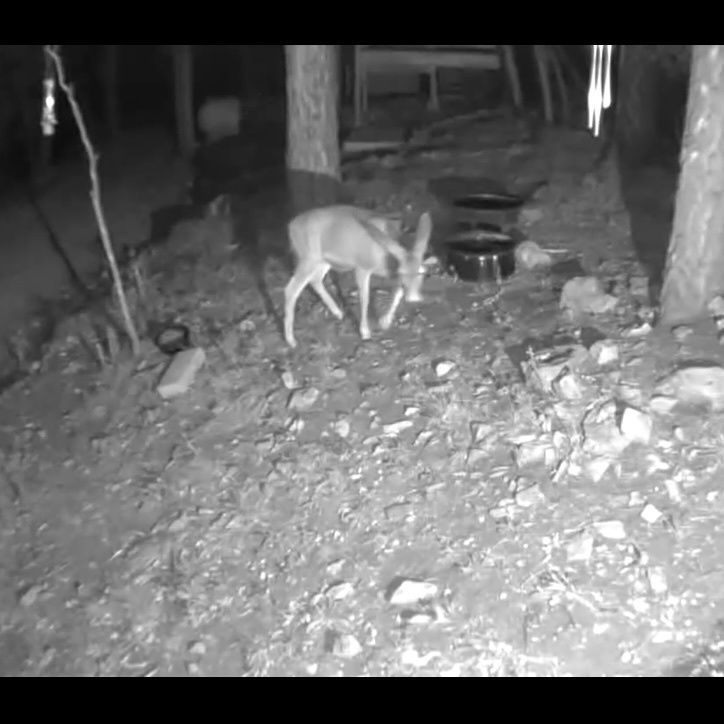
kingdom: Animalia
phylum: Chordata
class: Mammalia
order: Artiodactyla
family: Cervidae
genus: Odocoileus
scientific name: Odocoileus hemionus
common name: Mule deer
